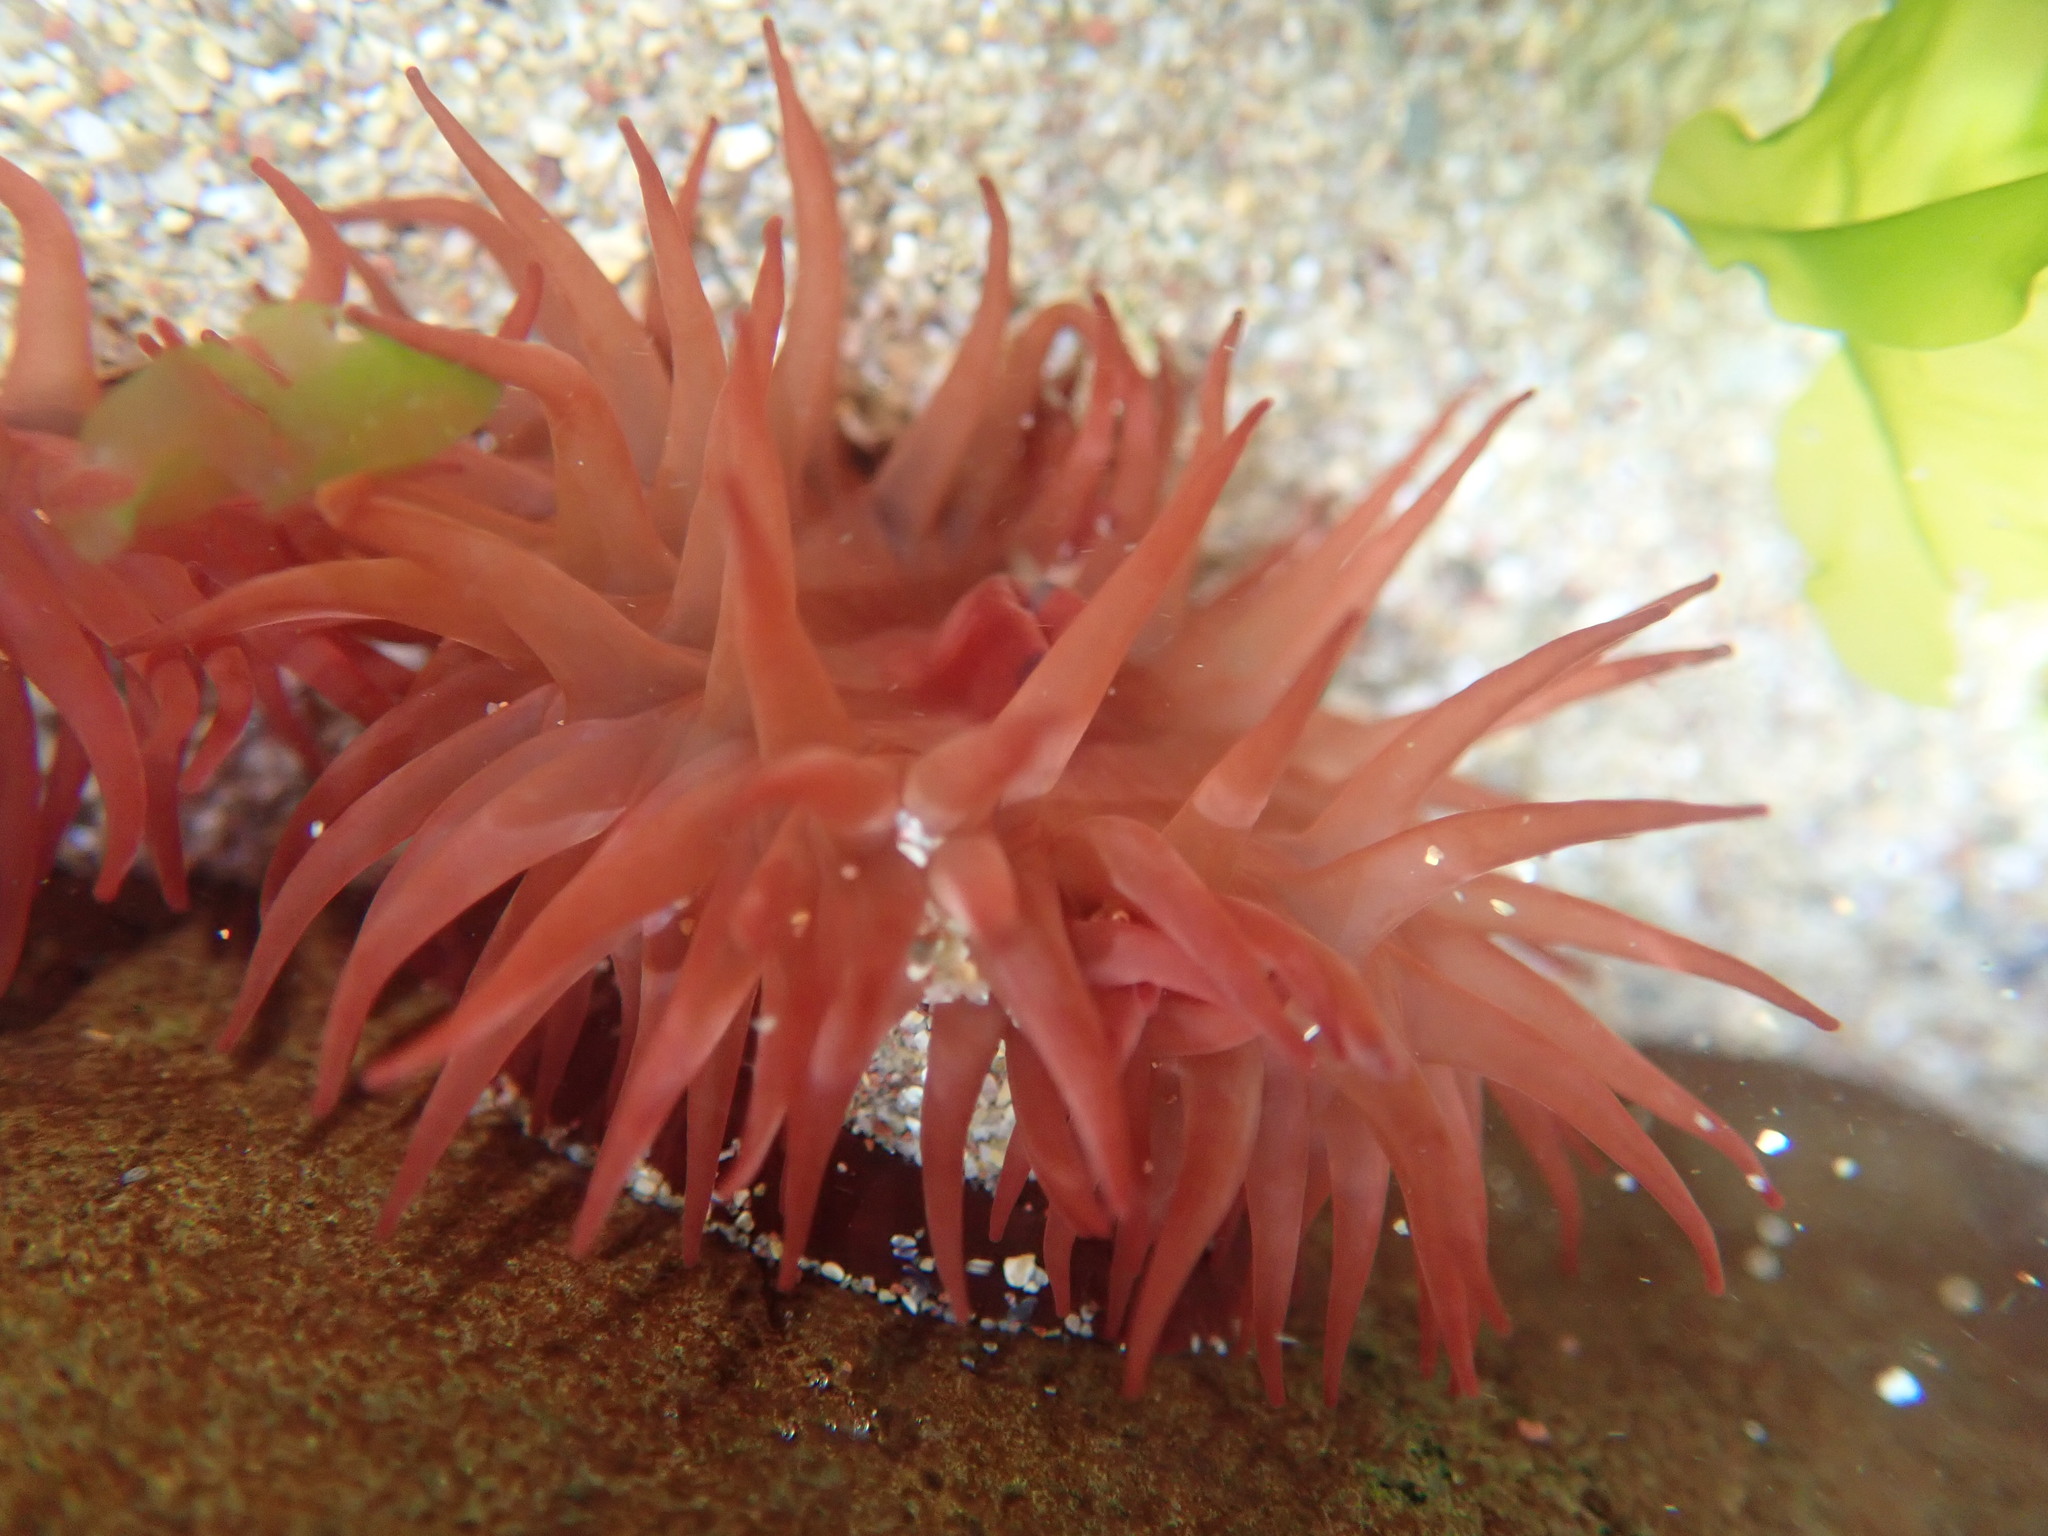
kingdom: Animalia
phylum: Cnidaria
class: Anthozoa
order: Actiniaria
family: Actiniidae
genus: Actinia
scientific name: Actinia equina
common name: Beadlet anemone
